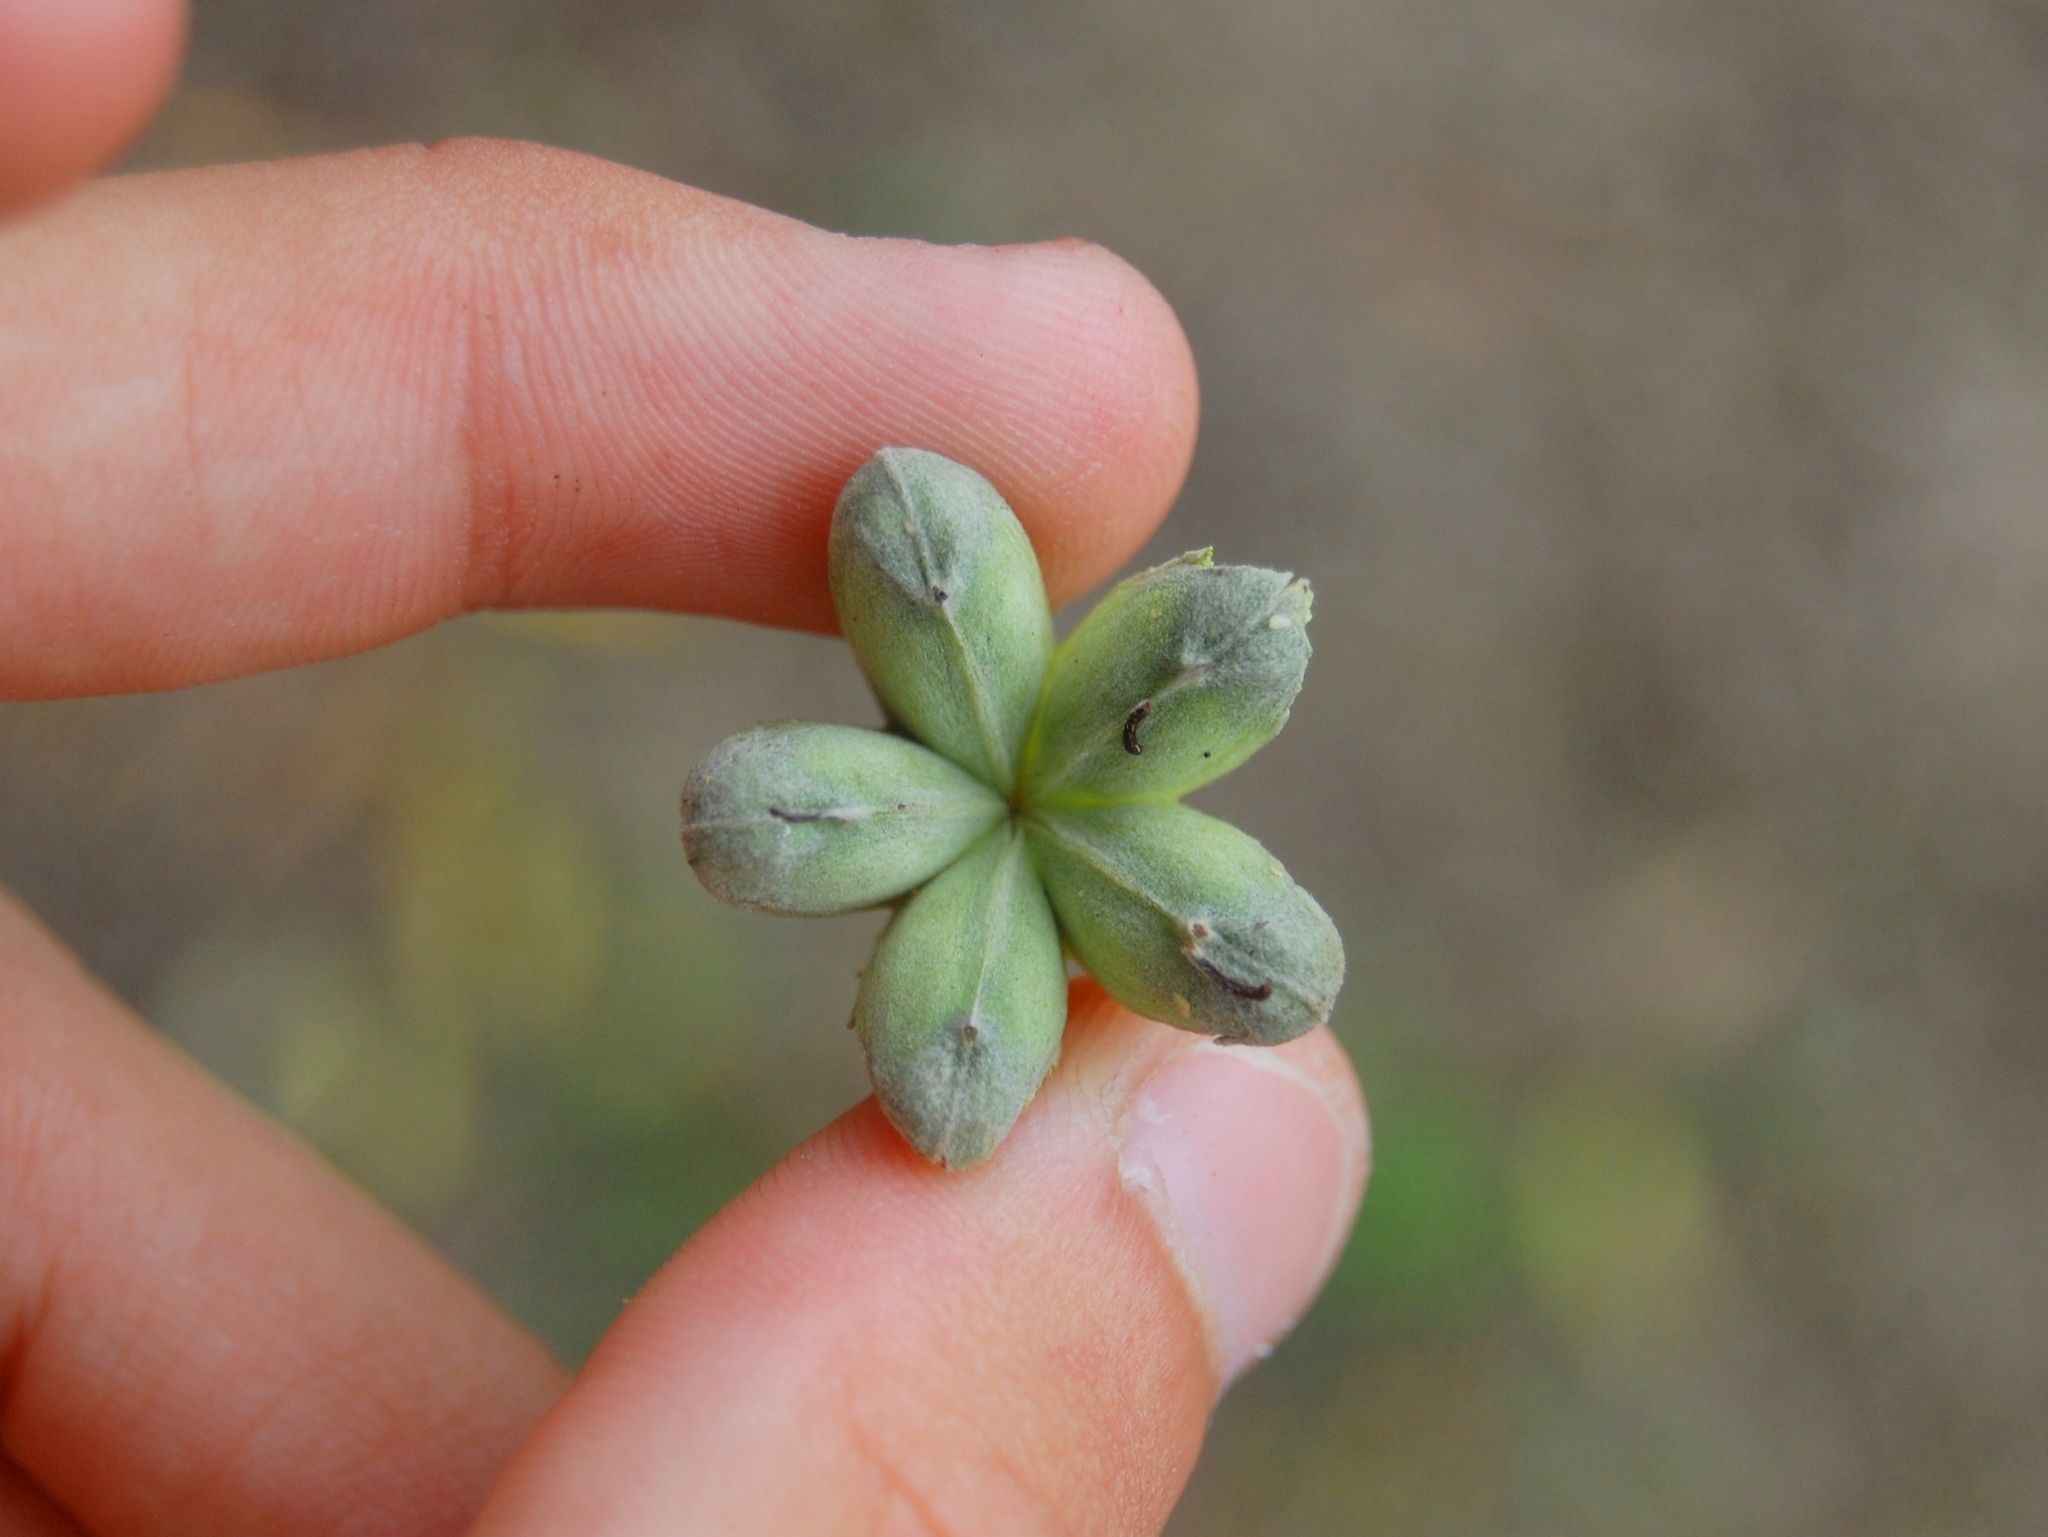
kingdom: Plantae
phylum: Tracheophyta
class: Magnoliopsida
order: Fabales
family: Quillajaceae
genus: Quillaja
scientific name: Quillaja brasiliensis
